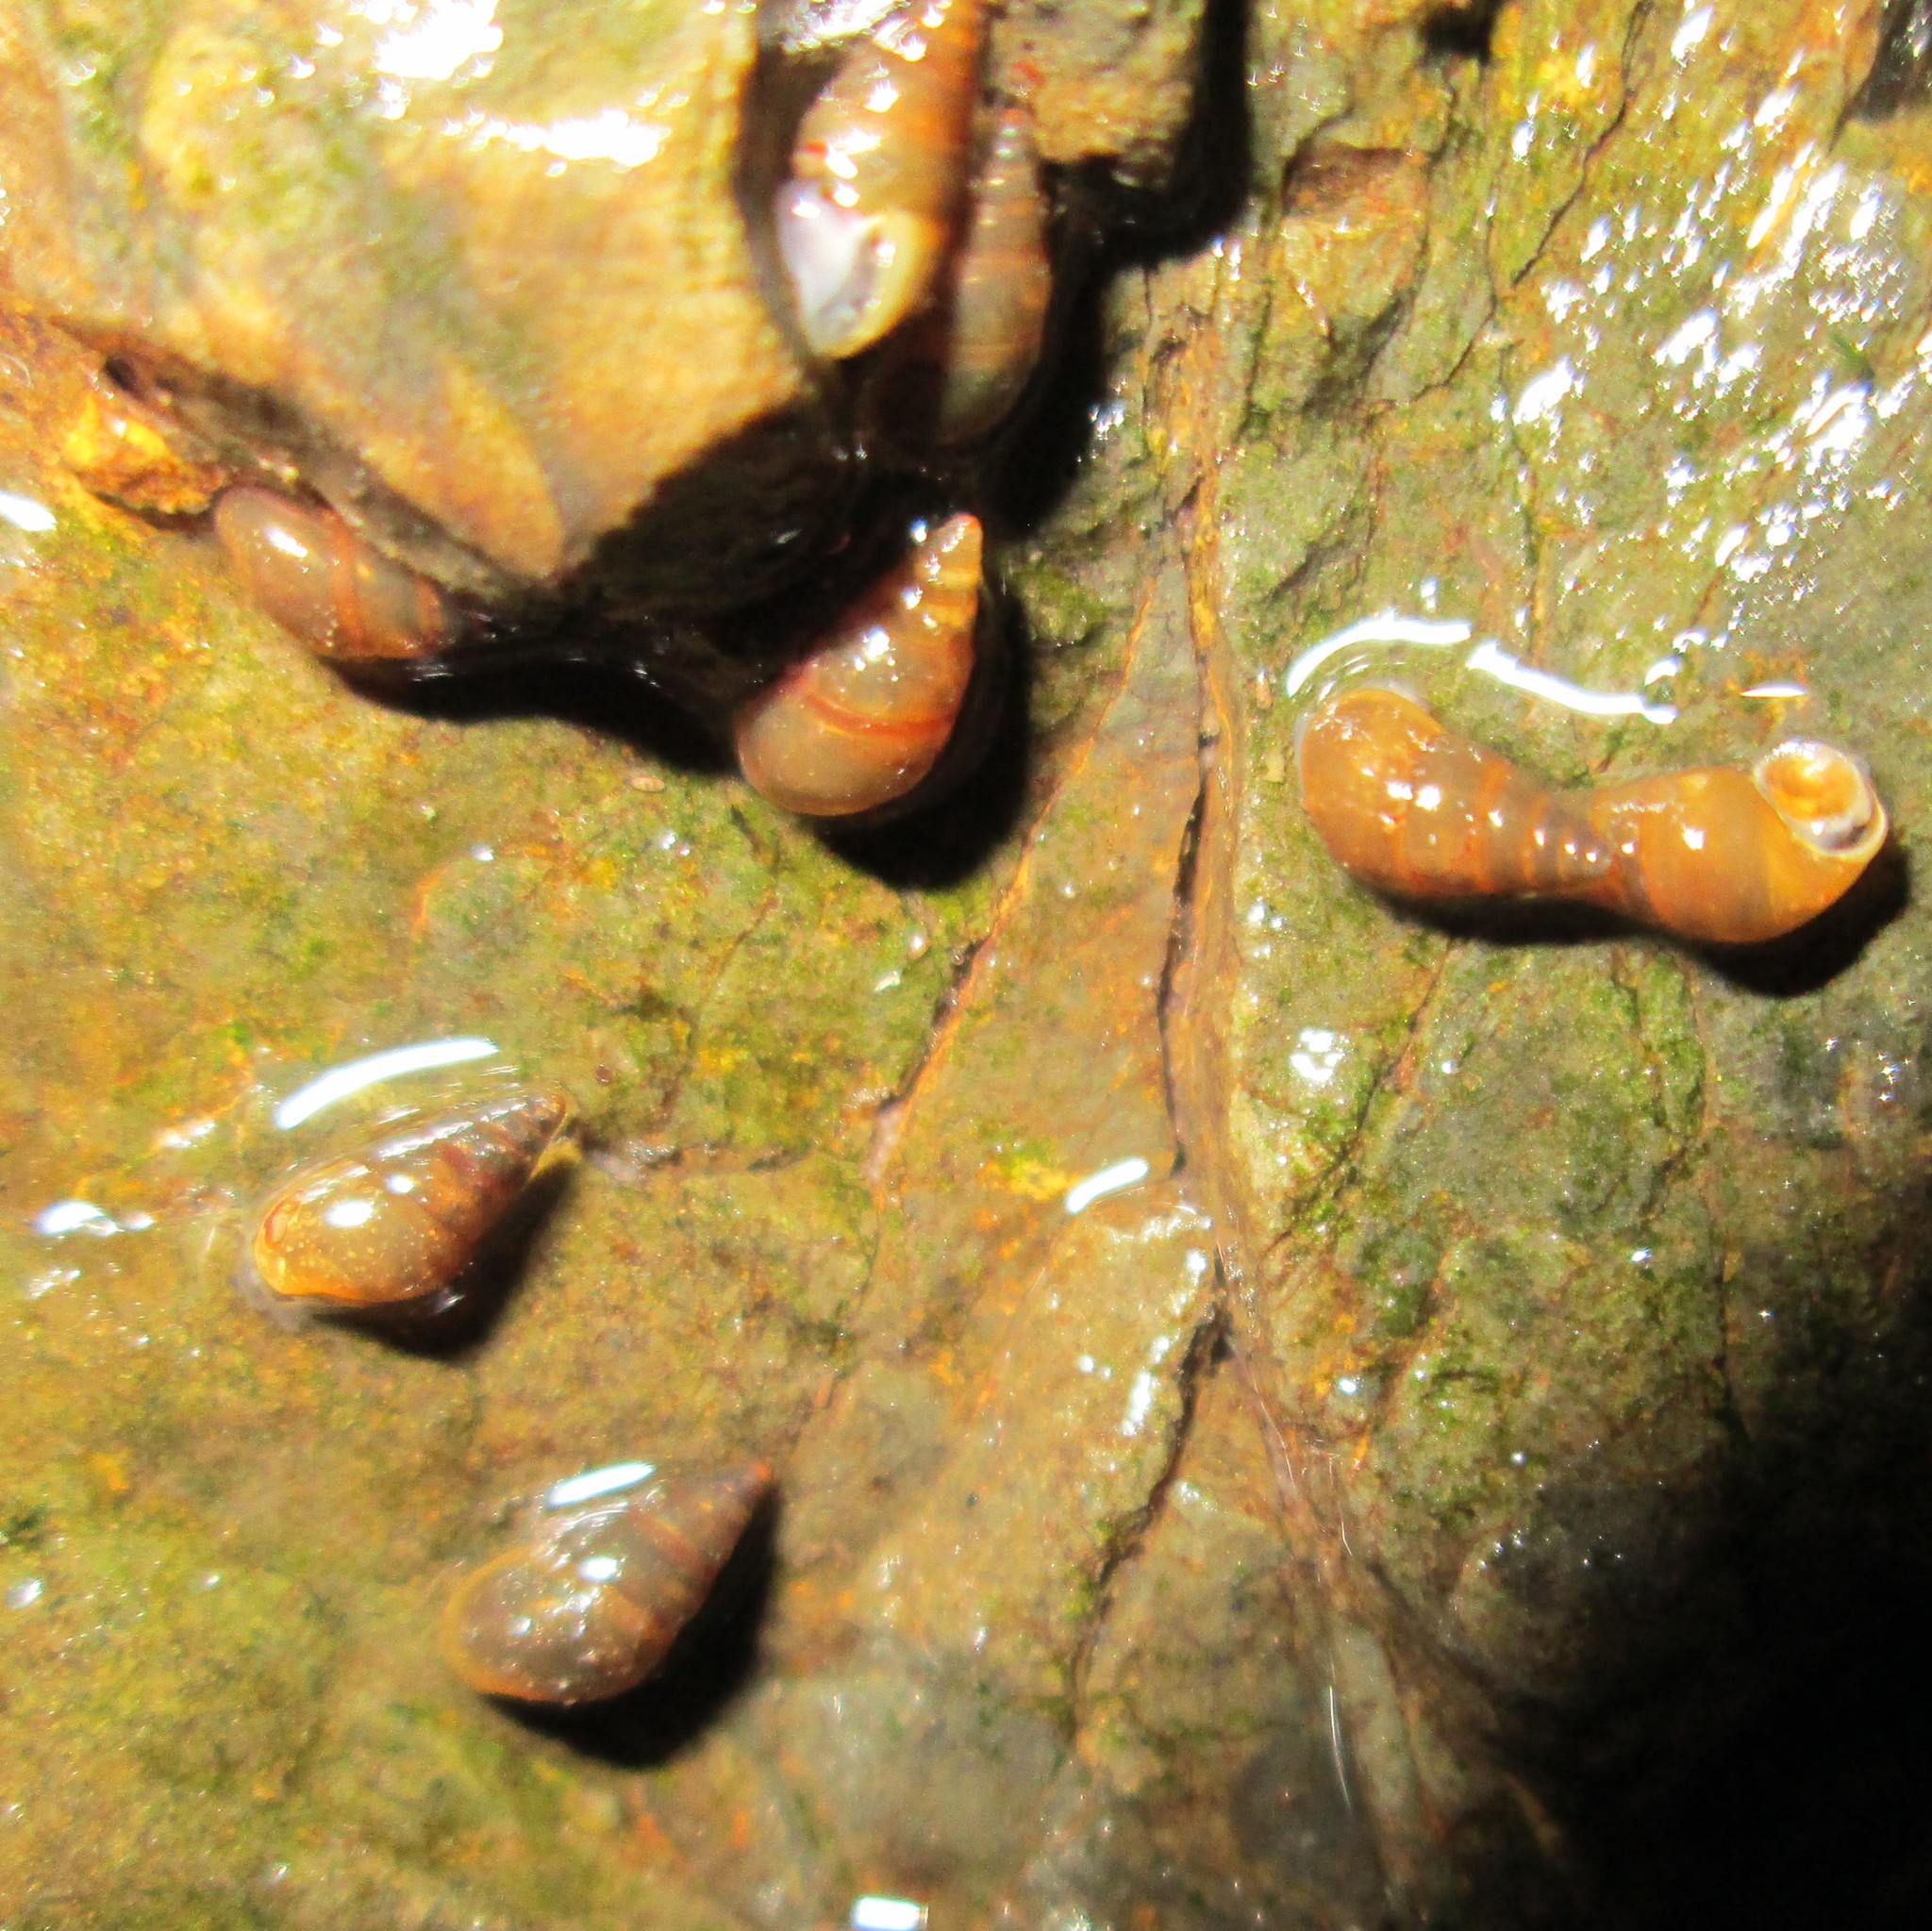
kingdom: Animalia
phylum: Mollusca
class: Gastropoda
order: Littorinimorpha
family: Tateidae
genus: Potamopyrgus
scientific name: Potamopyrgus antipodarum
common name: Jenkins' spire snail
